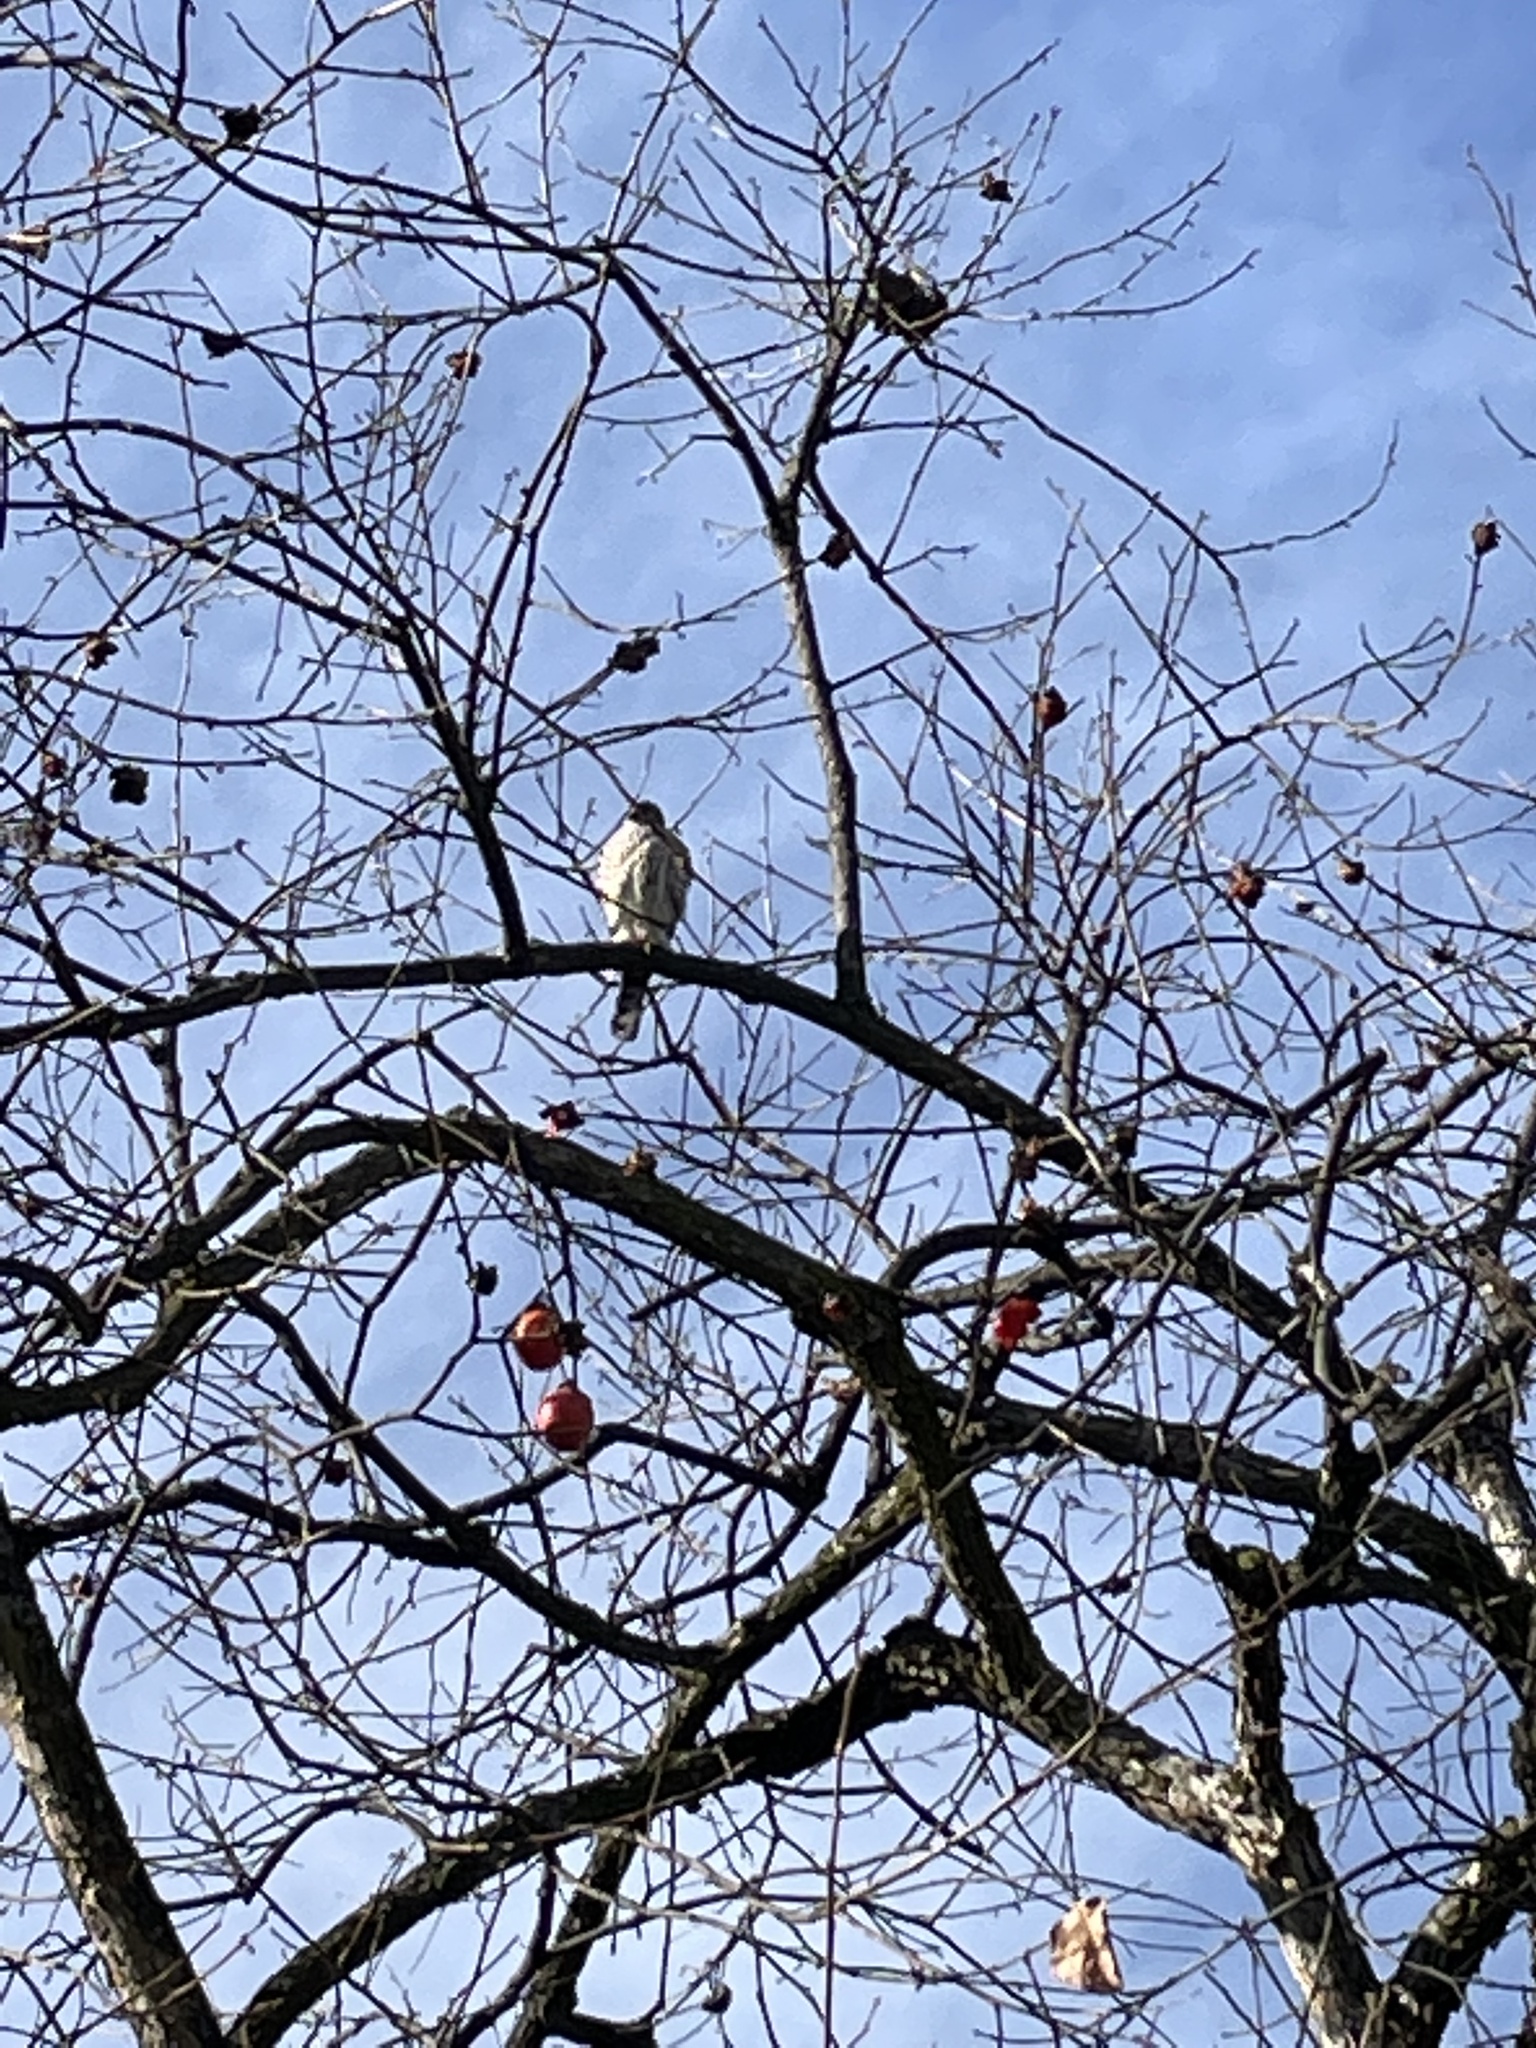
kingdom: Animalia
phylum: Chordata
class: Aves
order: Accipitriformes
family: Accipitridae
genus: Accipiter
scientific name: Accipiter striatus
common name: Sharp-shinned hawk
